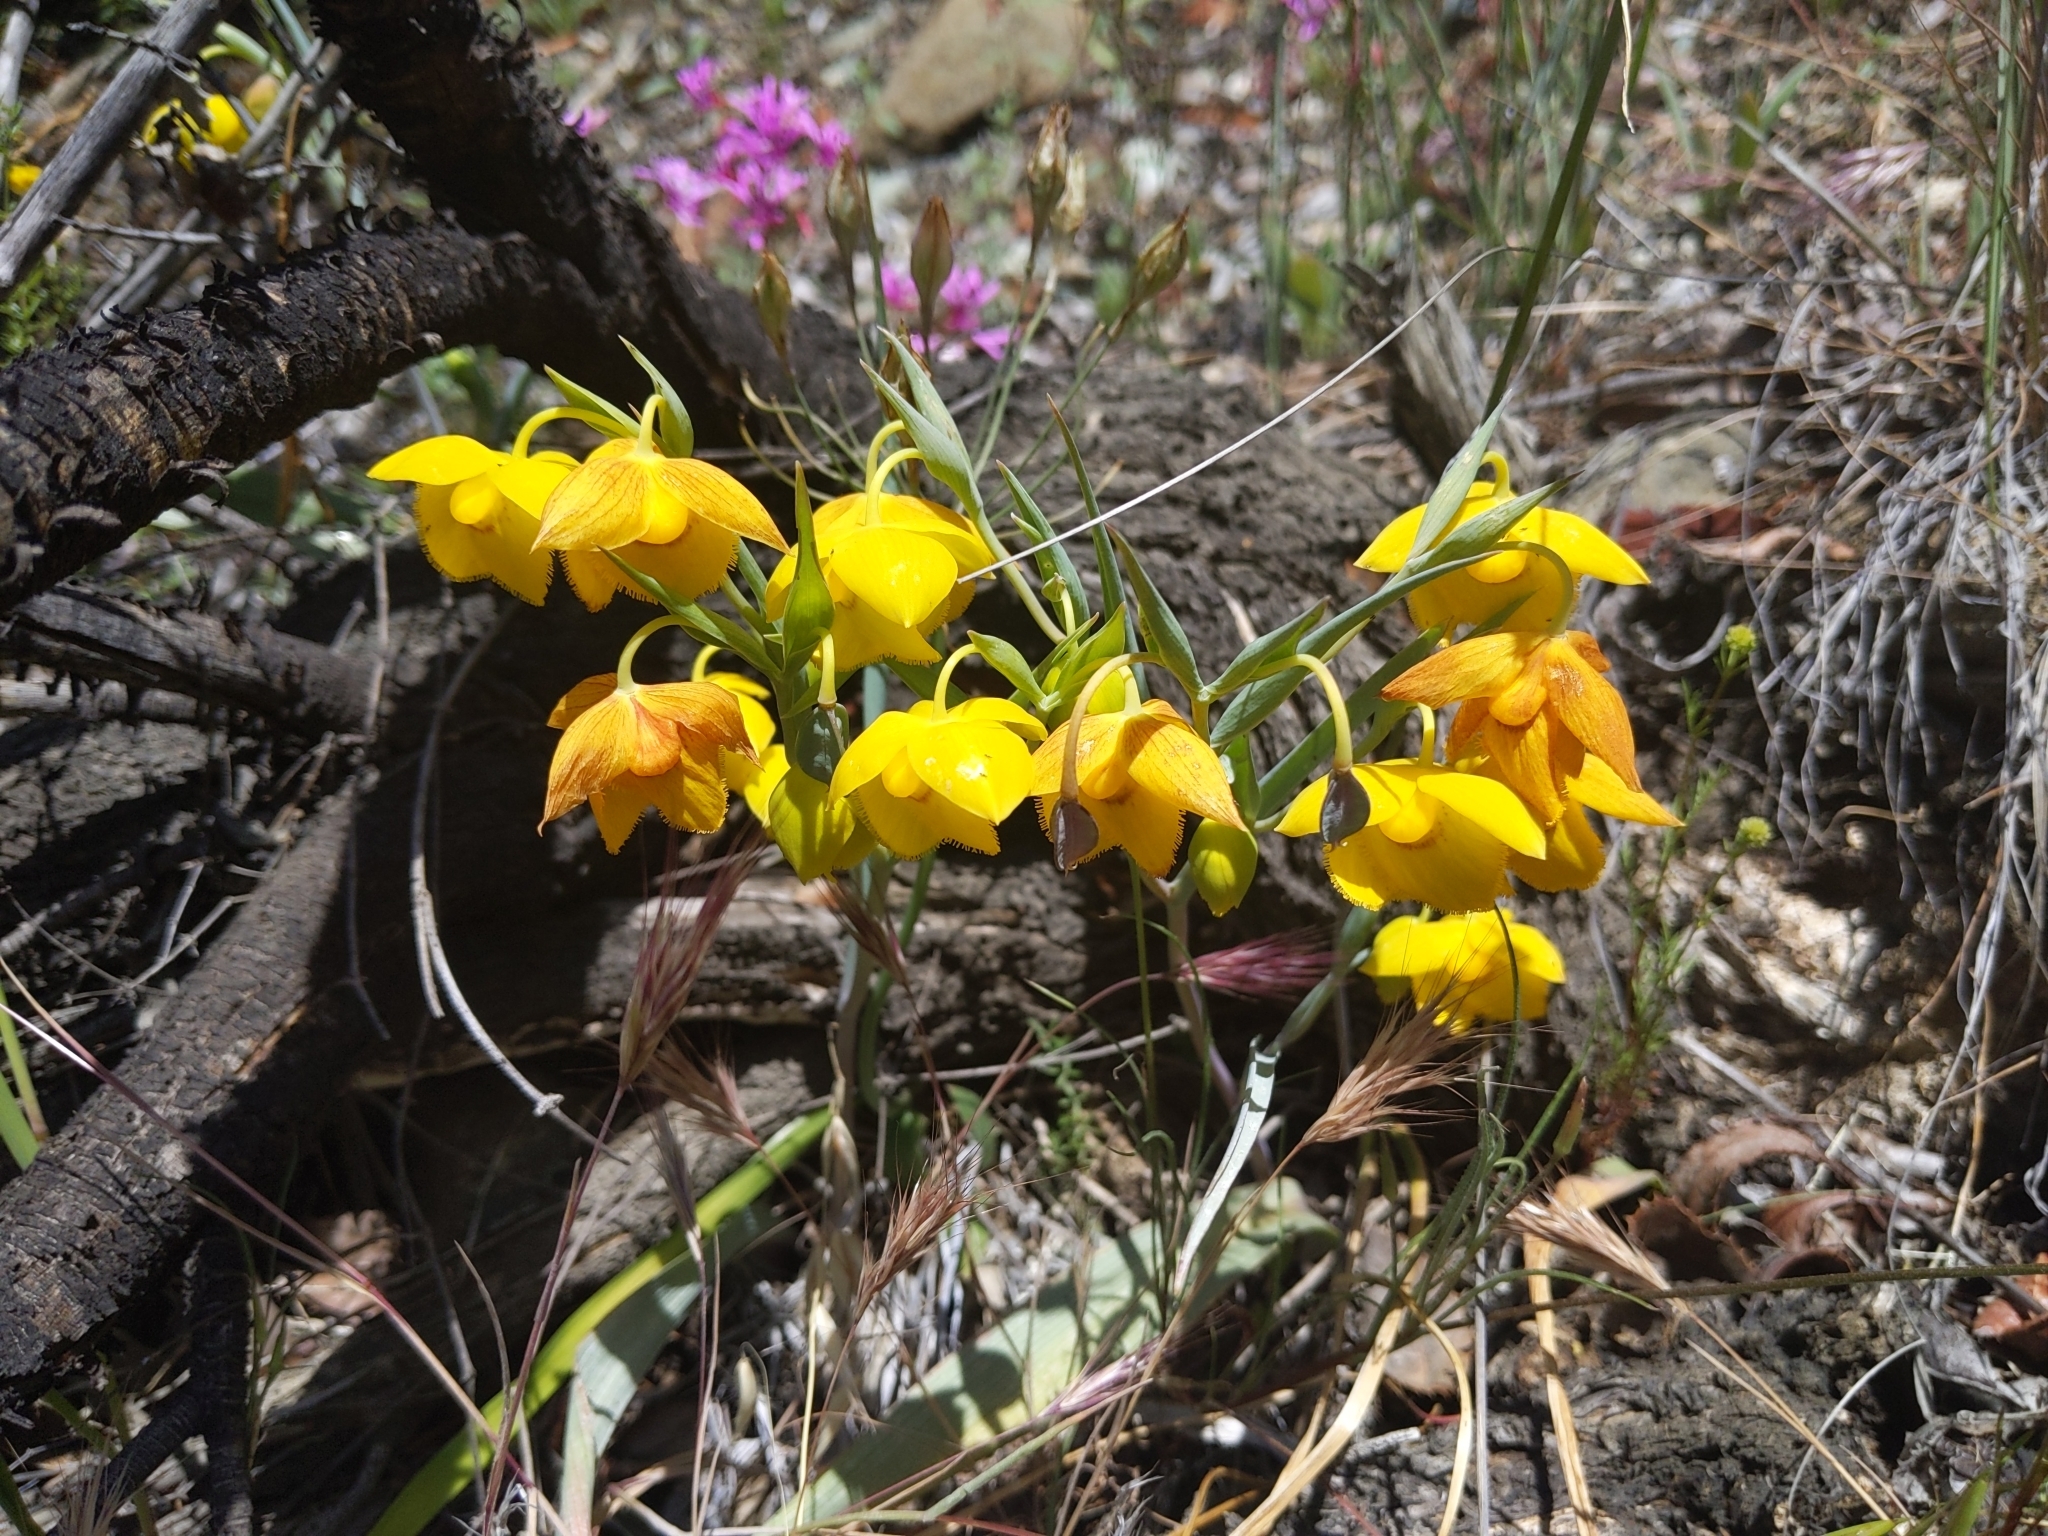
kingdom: Plantae
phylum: Tracheophyta
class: Liliopsida
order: Liliales
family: Liliaceae
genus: Calochortus
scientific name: Calochortus amabilis
